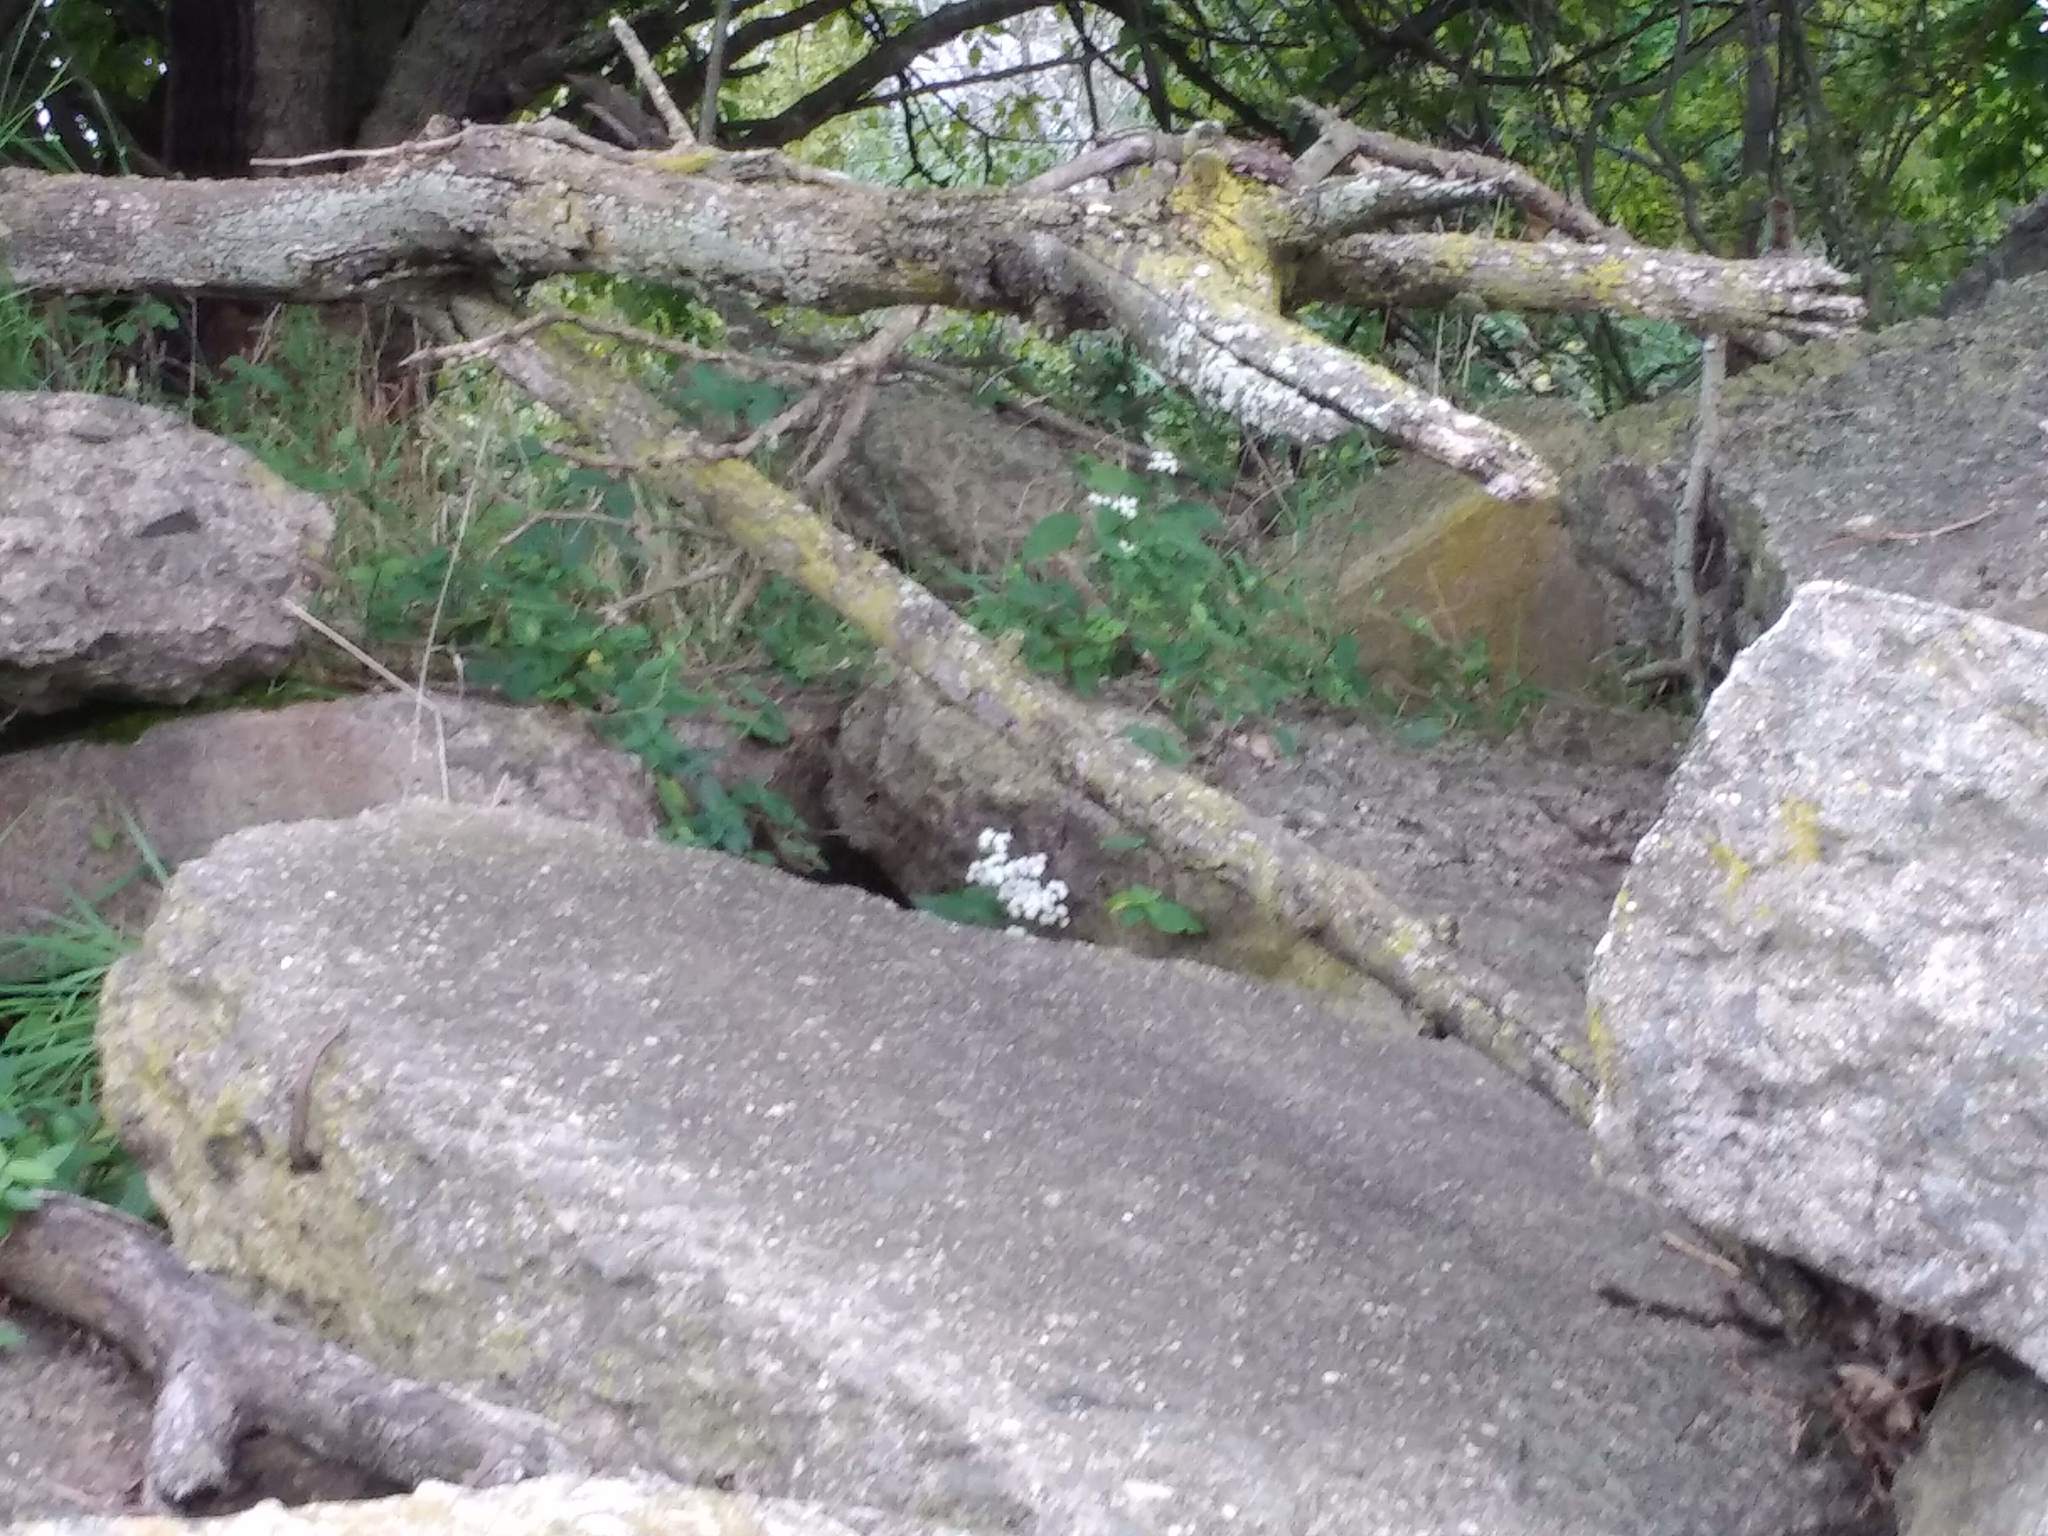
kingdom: Plantae
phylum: Tracheophyta
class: Magnoliopsida
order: Asterales
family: Asteraceae
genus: Ageratina
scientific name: Ageratina altissima
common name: White snakeroot
